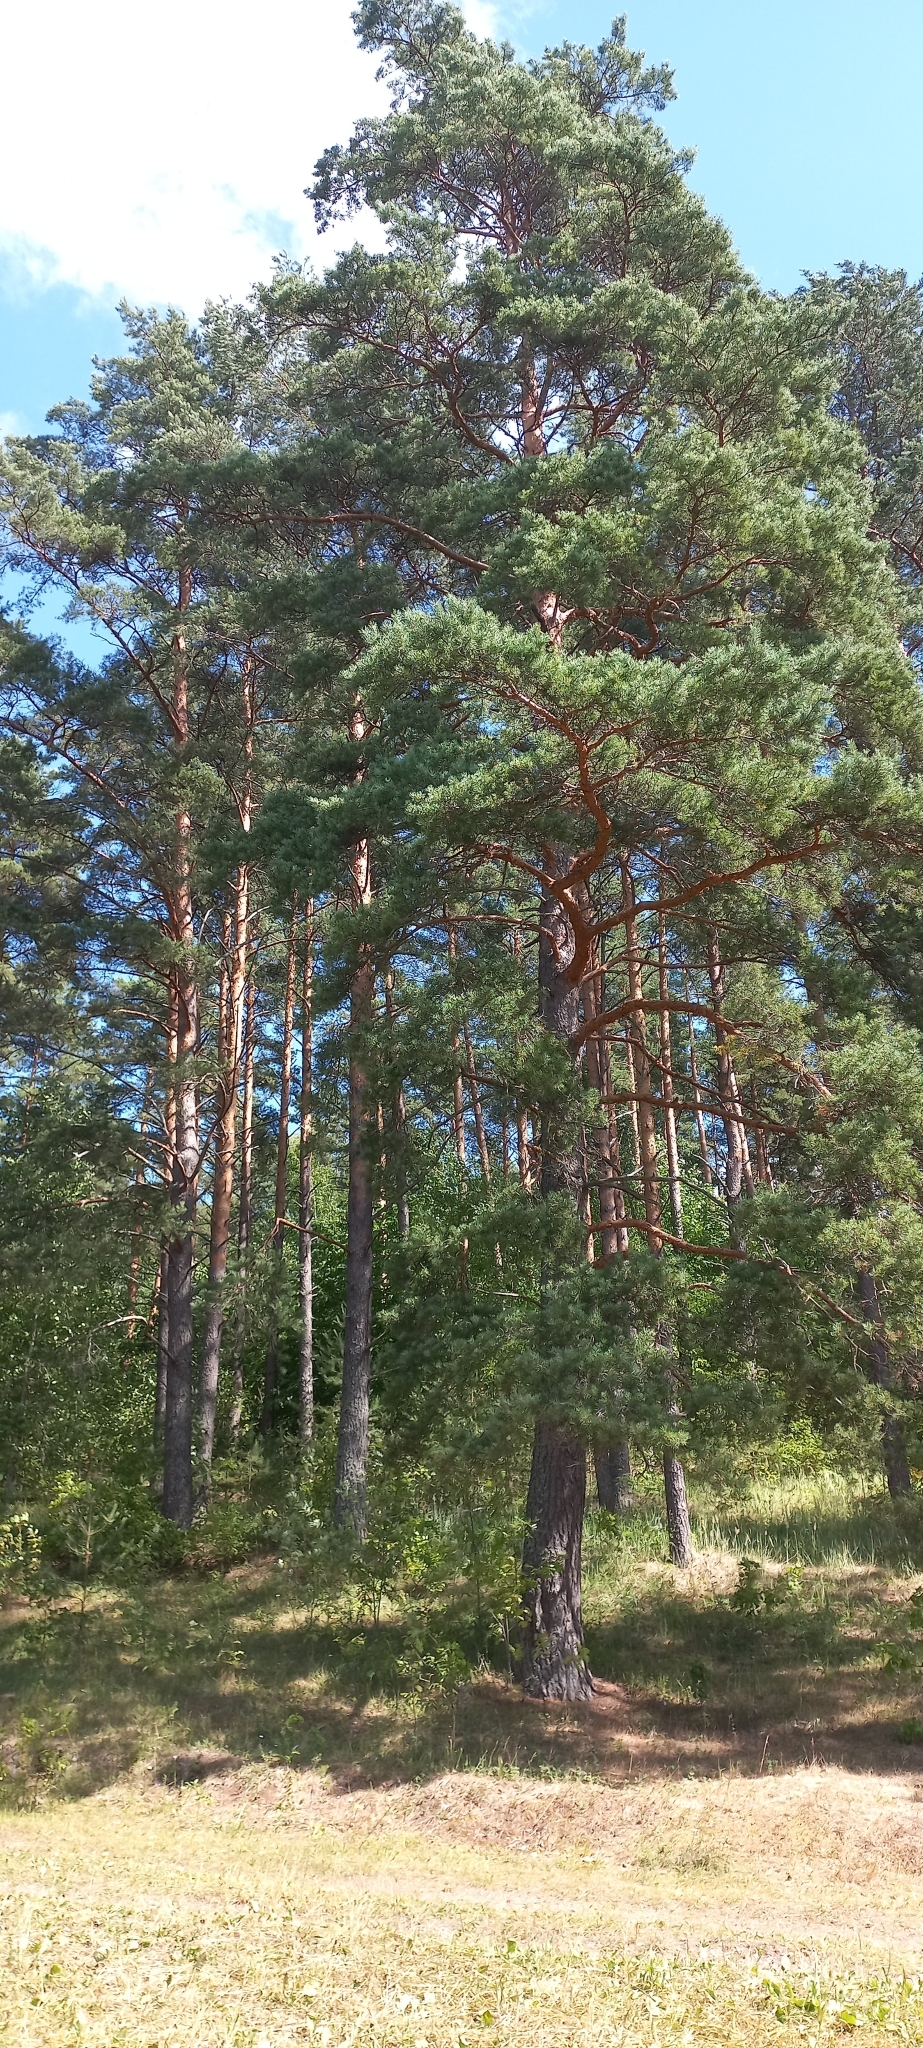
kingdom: Plantae
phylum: Tracheophyta
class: Pinopsida
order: Pinales
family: Pinaceae
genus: Pinus
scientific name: Pinus sylvestris
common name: Scots pine
